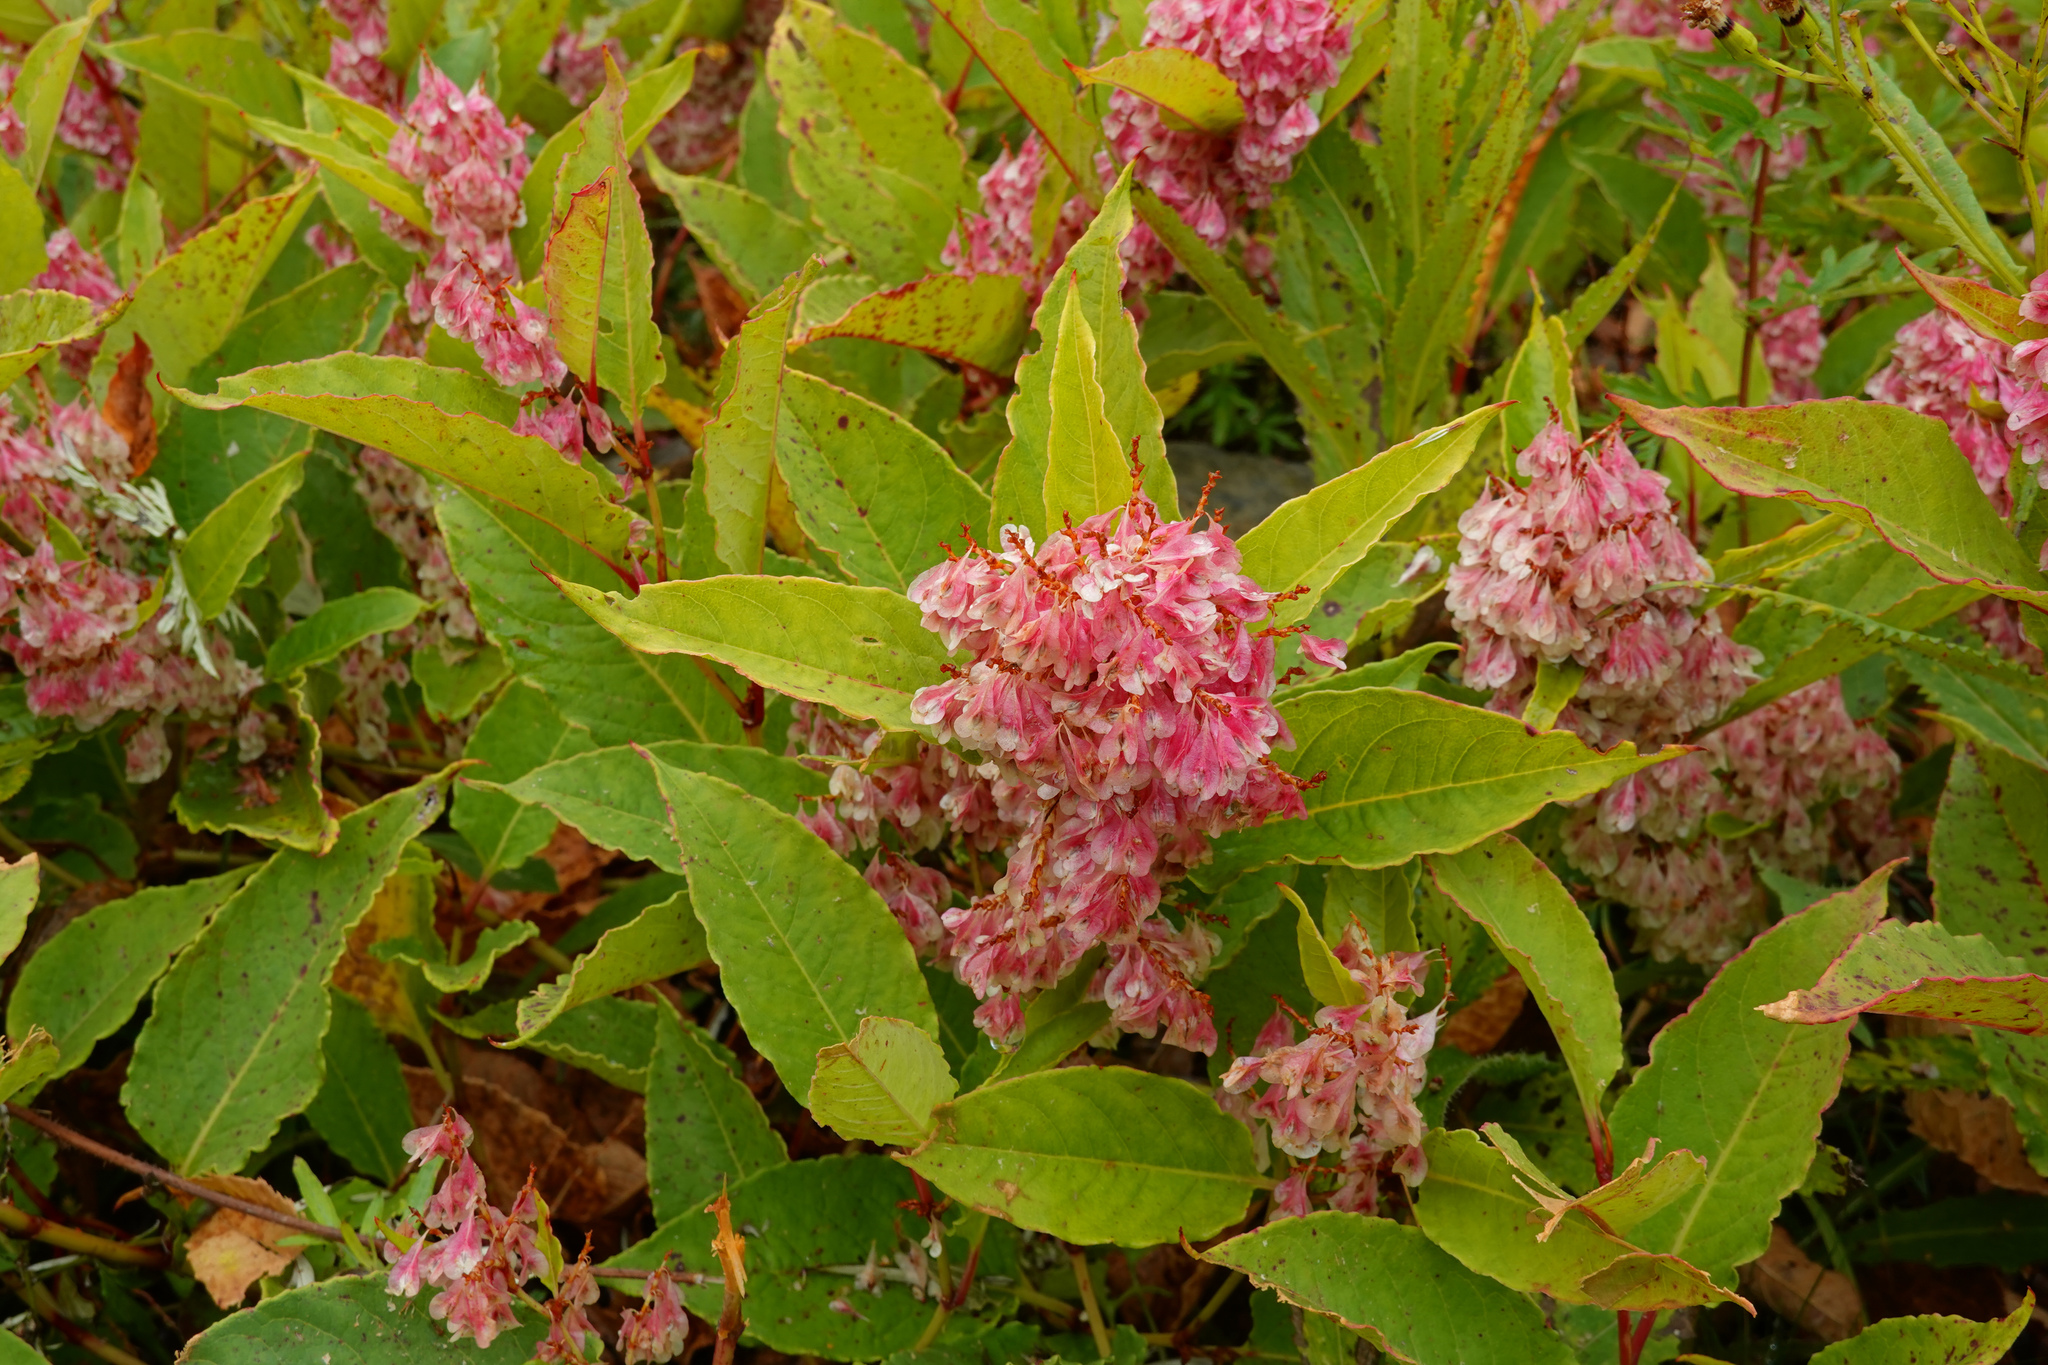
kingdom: Plantae
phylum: Tracheophyta
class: Magnoliopsida
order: Caryophyllales
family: Polygonaceae
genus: Reynoutria
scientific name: Reynoutria japonica
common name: Japanese knotweed
